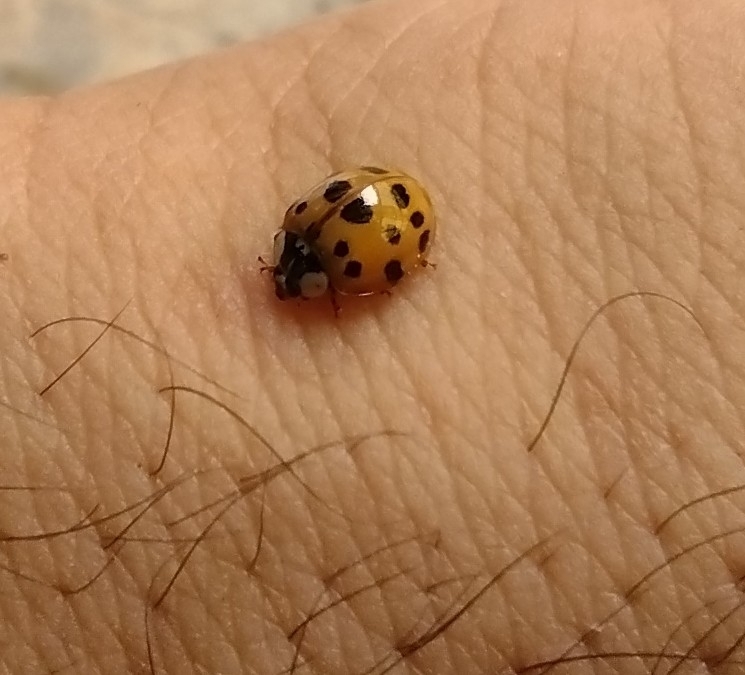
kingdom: Animalia
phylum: Arthropoda
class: Insecta
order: Coleoptera
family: Coccinellidae
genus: Harmonia
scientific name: Harmonia axyridis
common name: Harlequin ladybird
